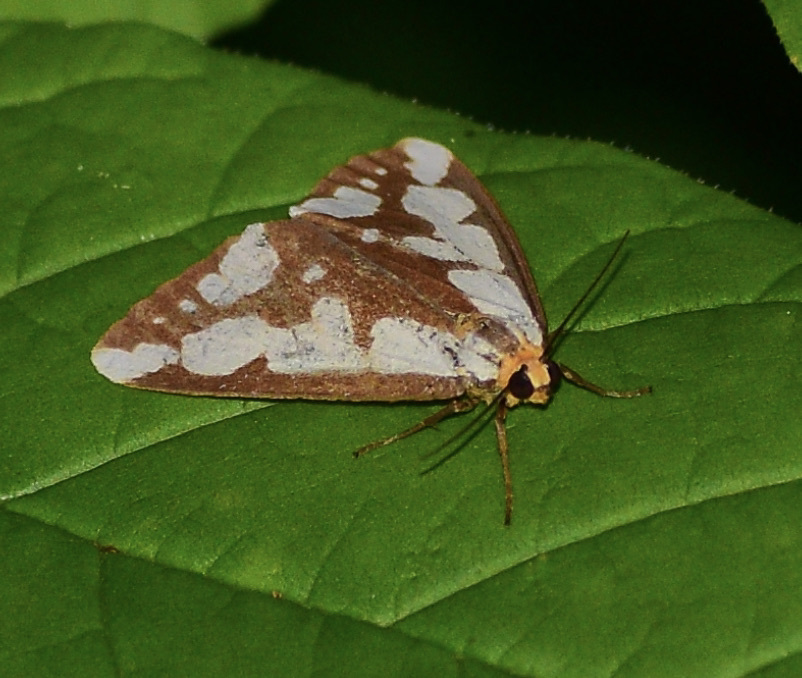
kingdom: Animalia
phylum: Arthropoda
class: Insecta
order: Lepidoptera
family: Erebidae
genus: Haploa
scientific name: Haploa confusa
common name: Confused haploa moth
